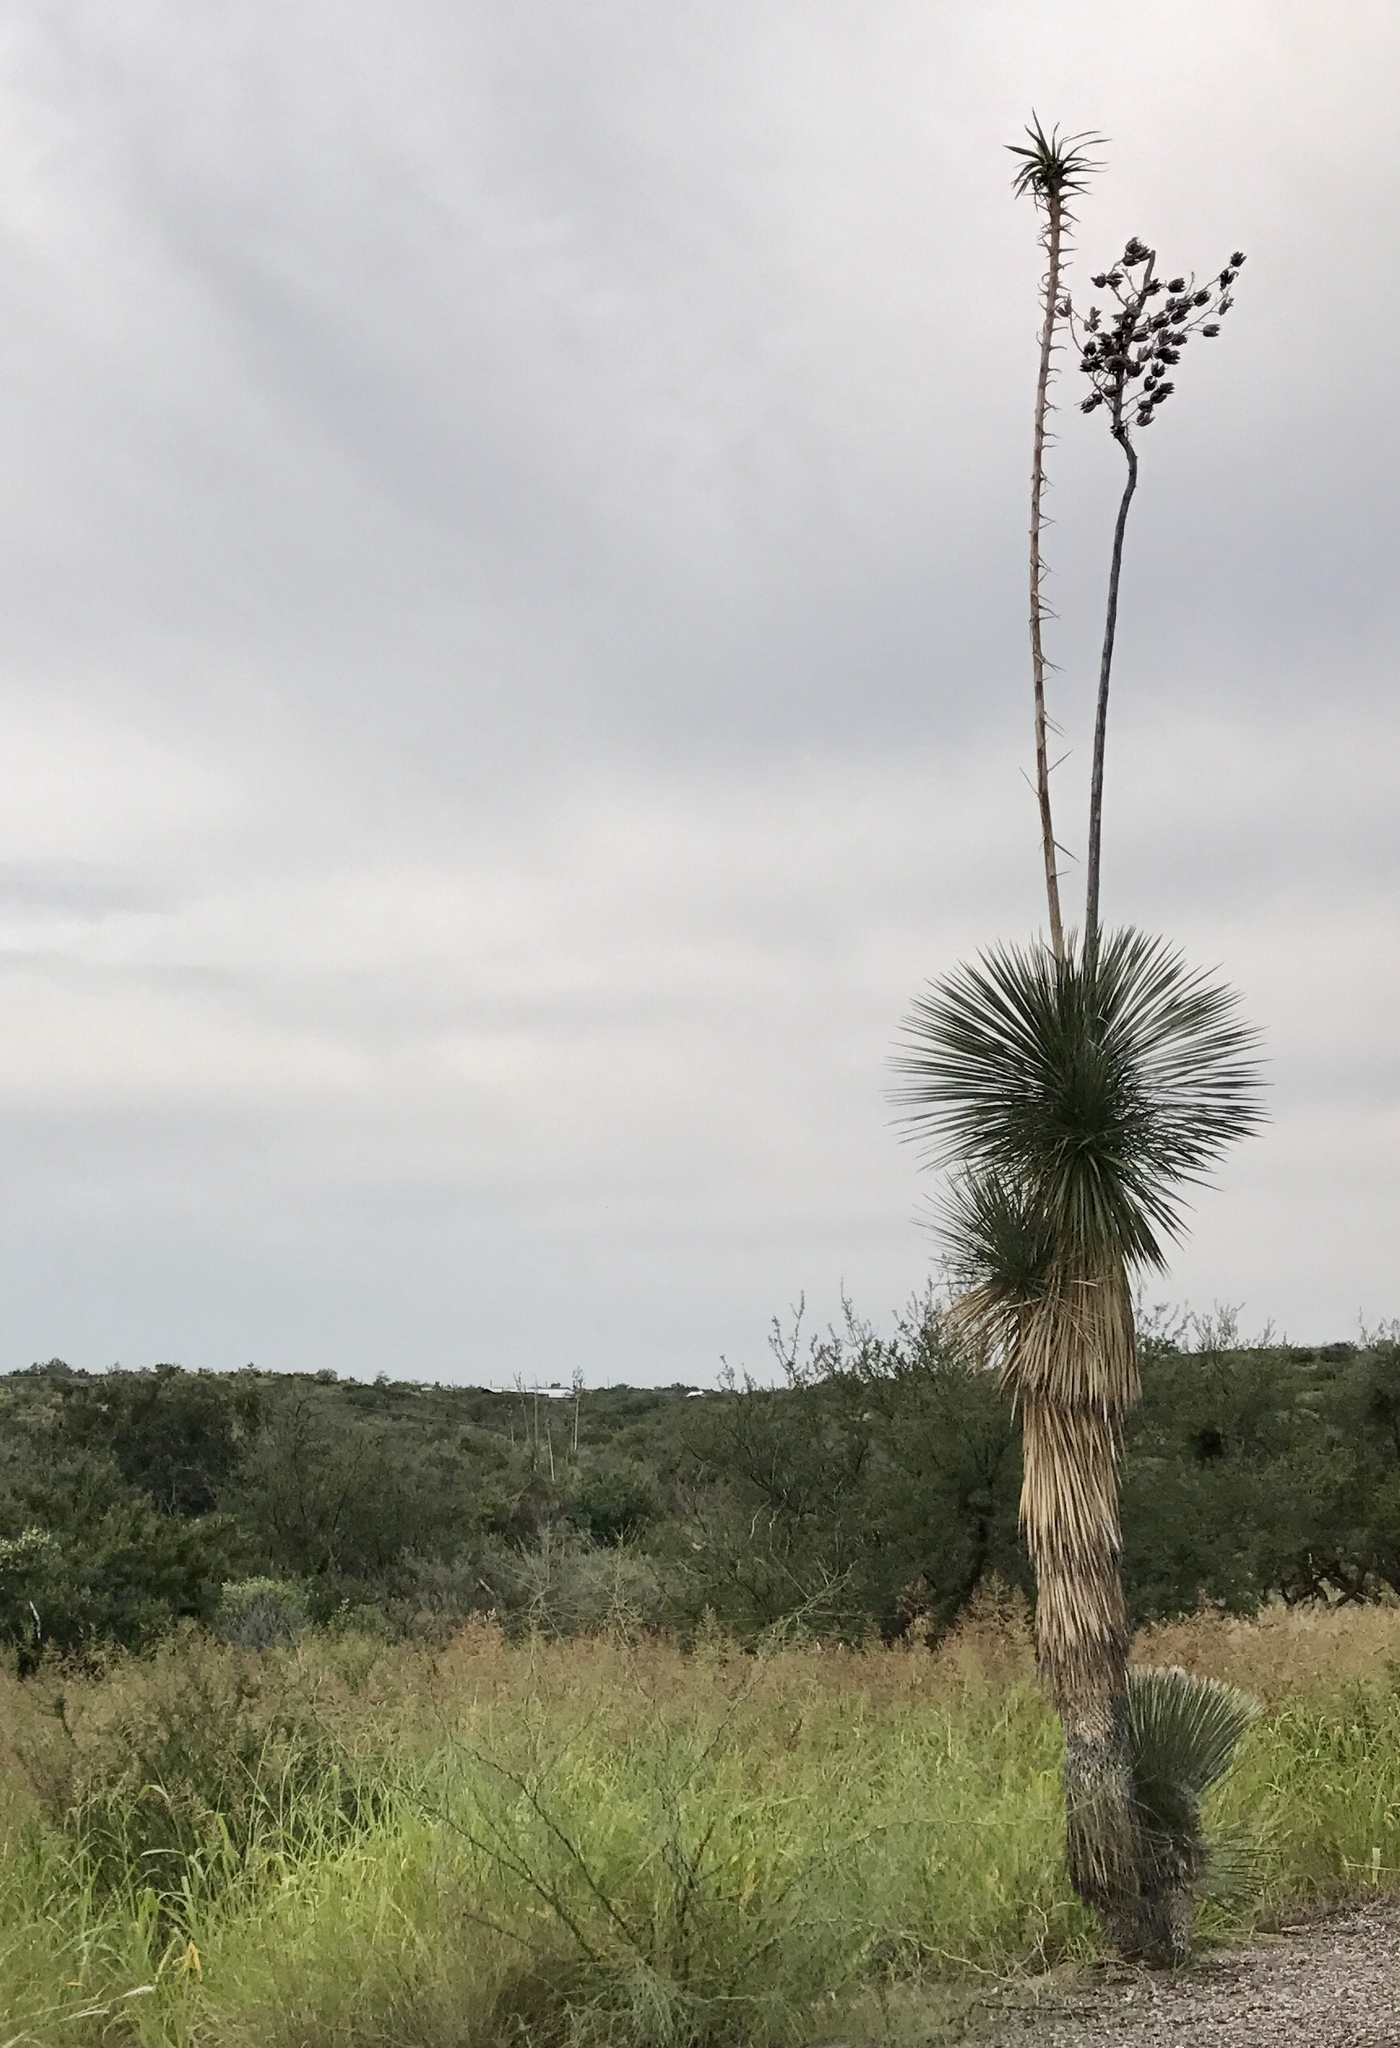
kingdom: Plantae
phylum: Tracheophyta
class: Liliopsida
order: Asparagales
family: Asparagaceae
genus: Yucca
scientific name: Yucca elata
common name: Palmella
